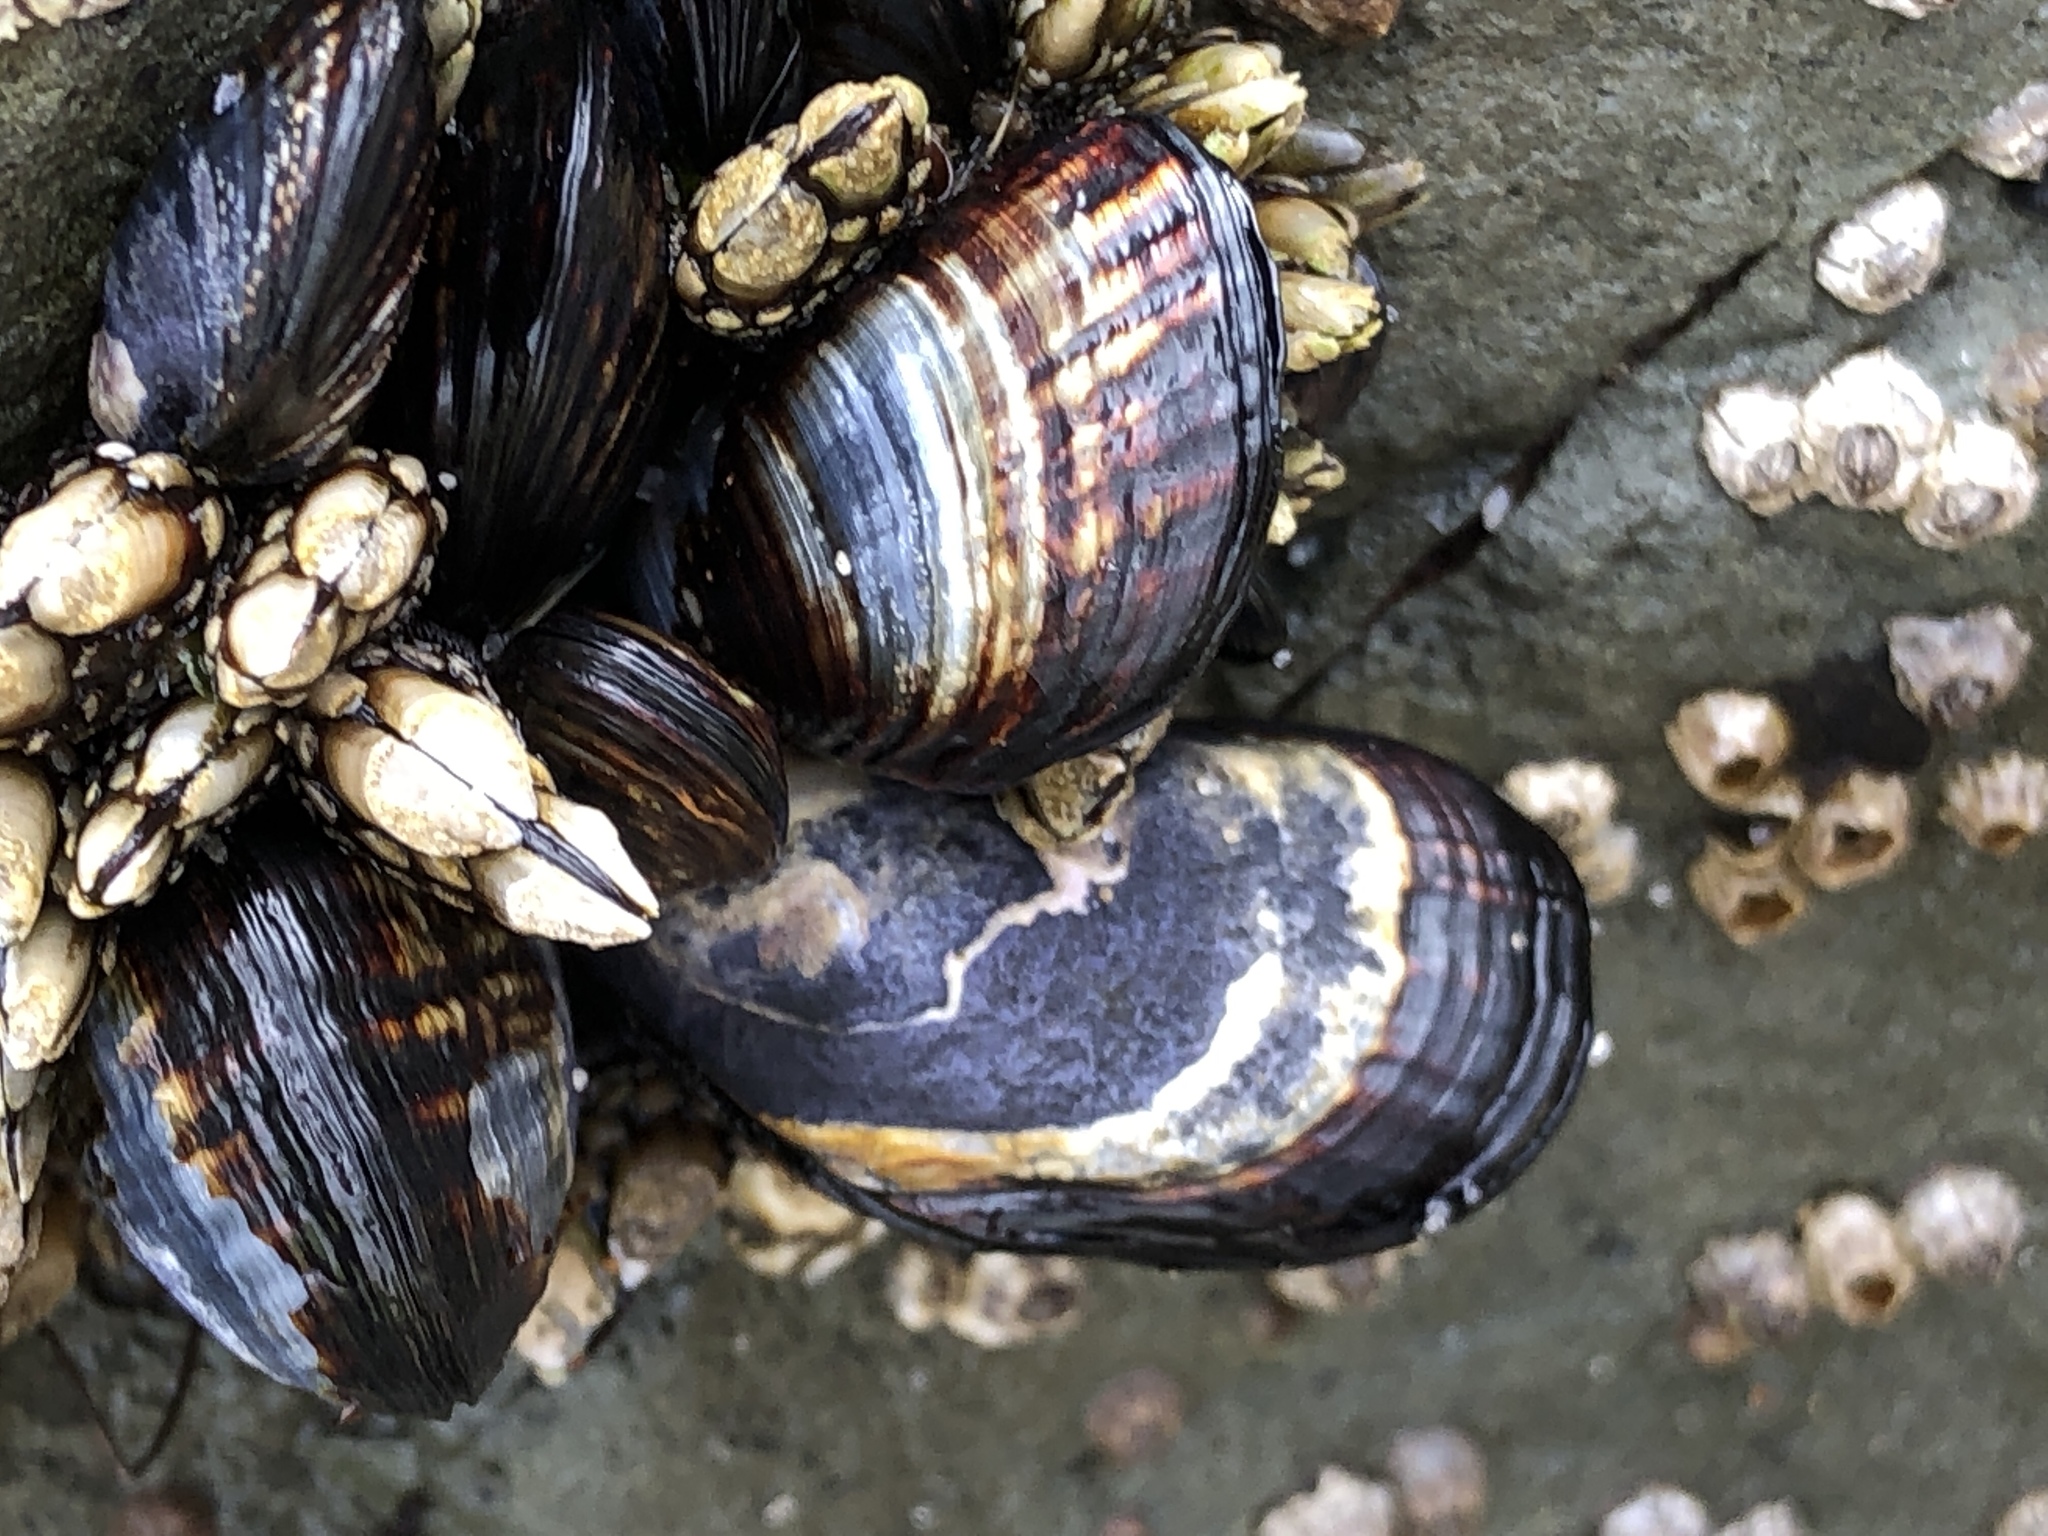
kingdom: Animalia
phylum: Mollusca
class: Bivalvia
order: Mytilida
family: Mytilidae
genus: Mytilus
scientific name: Mytilus californianus
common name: California mussel
